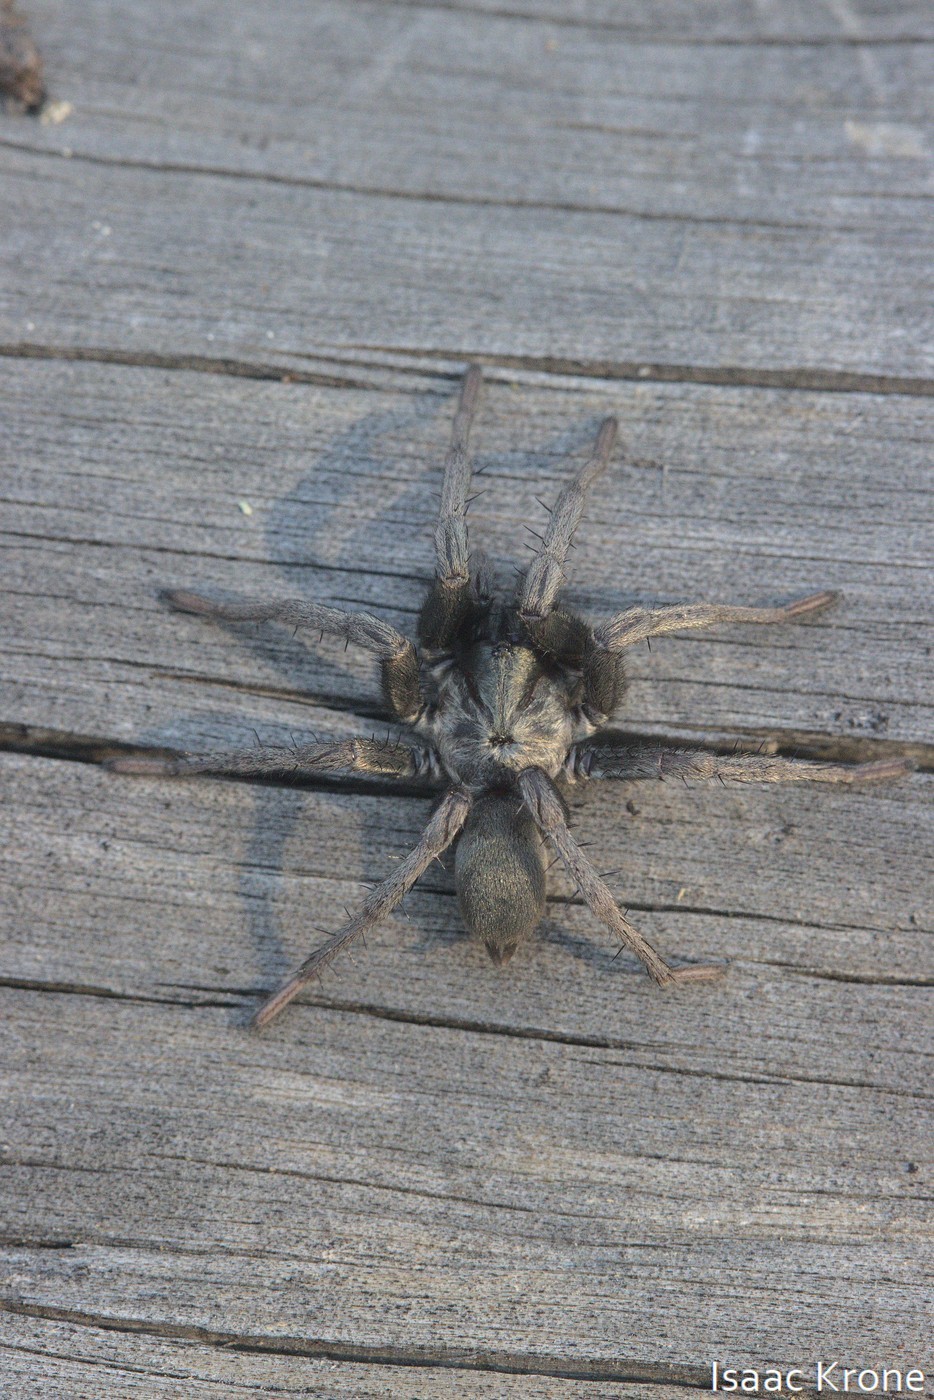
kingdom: Animalia
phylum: Arthropoda
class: Arachnida
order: Araneae
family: Nemesiidae
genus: Calisoga
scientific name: Calisoga longitarsis
